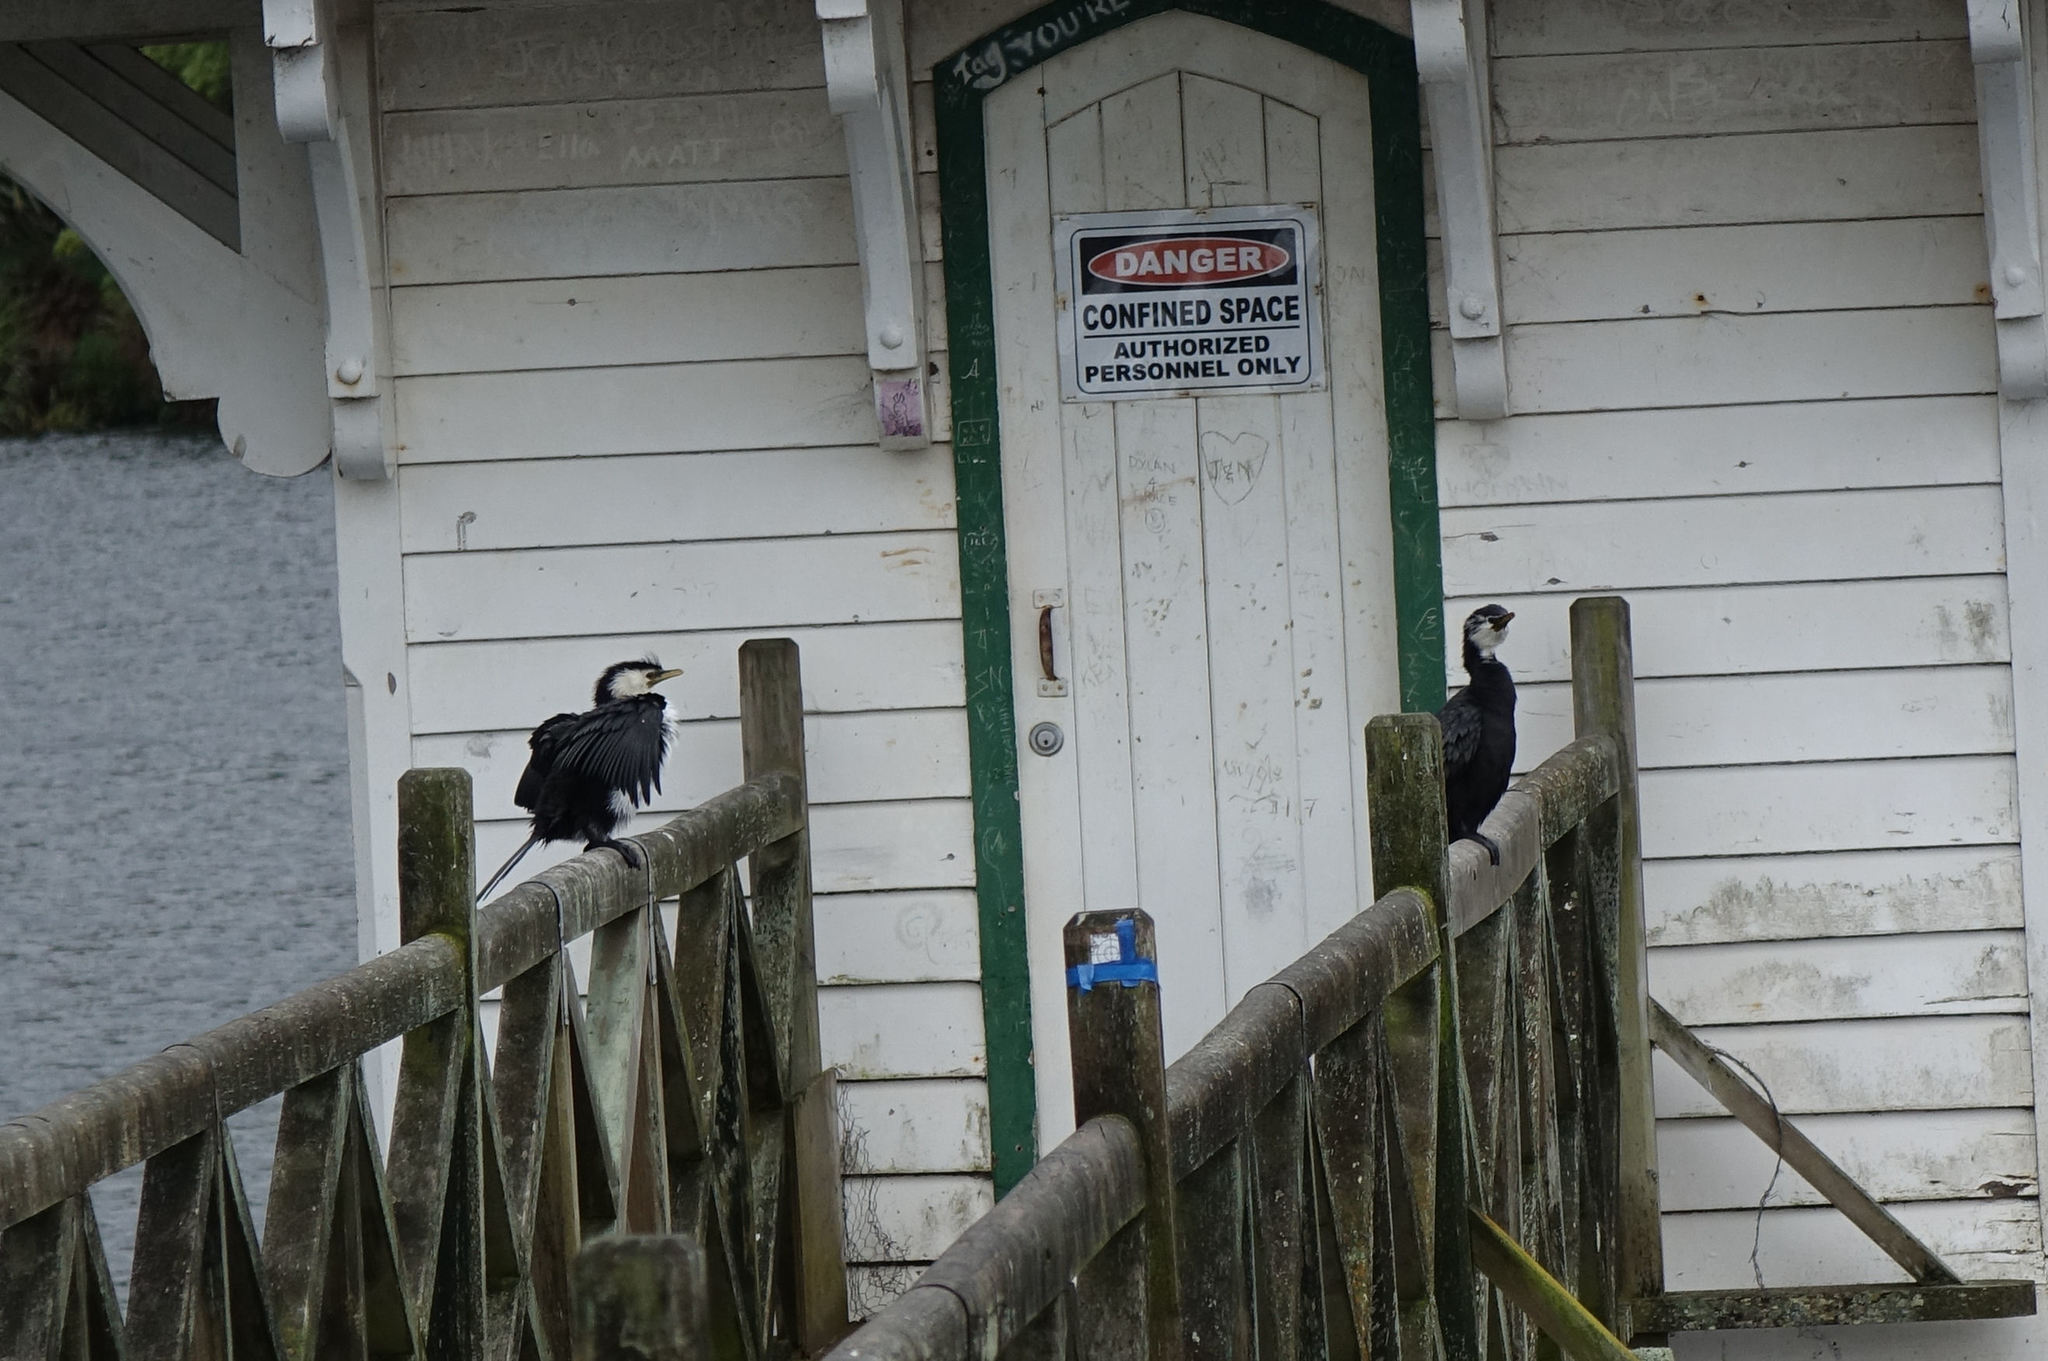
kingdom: Animalia
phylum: Chordata
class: Aves
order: Suliformes
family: Phalacrocoracidae
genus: Microcarbo
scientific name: Microcarbo melanoleucos
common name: Little pied cormorant
